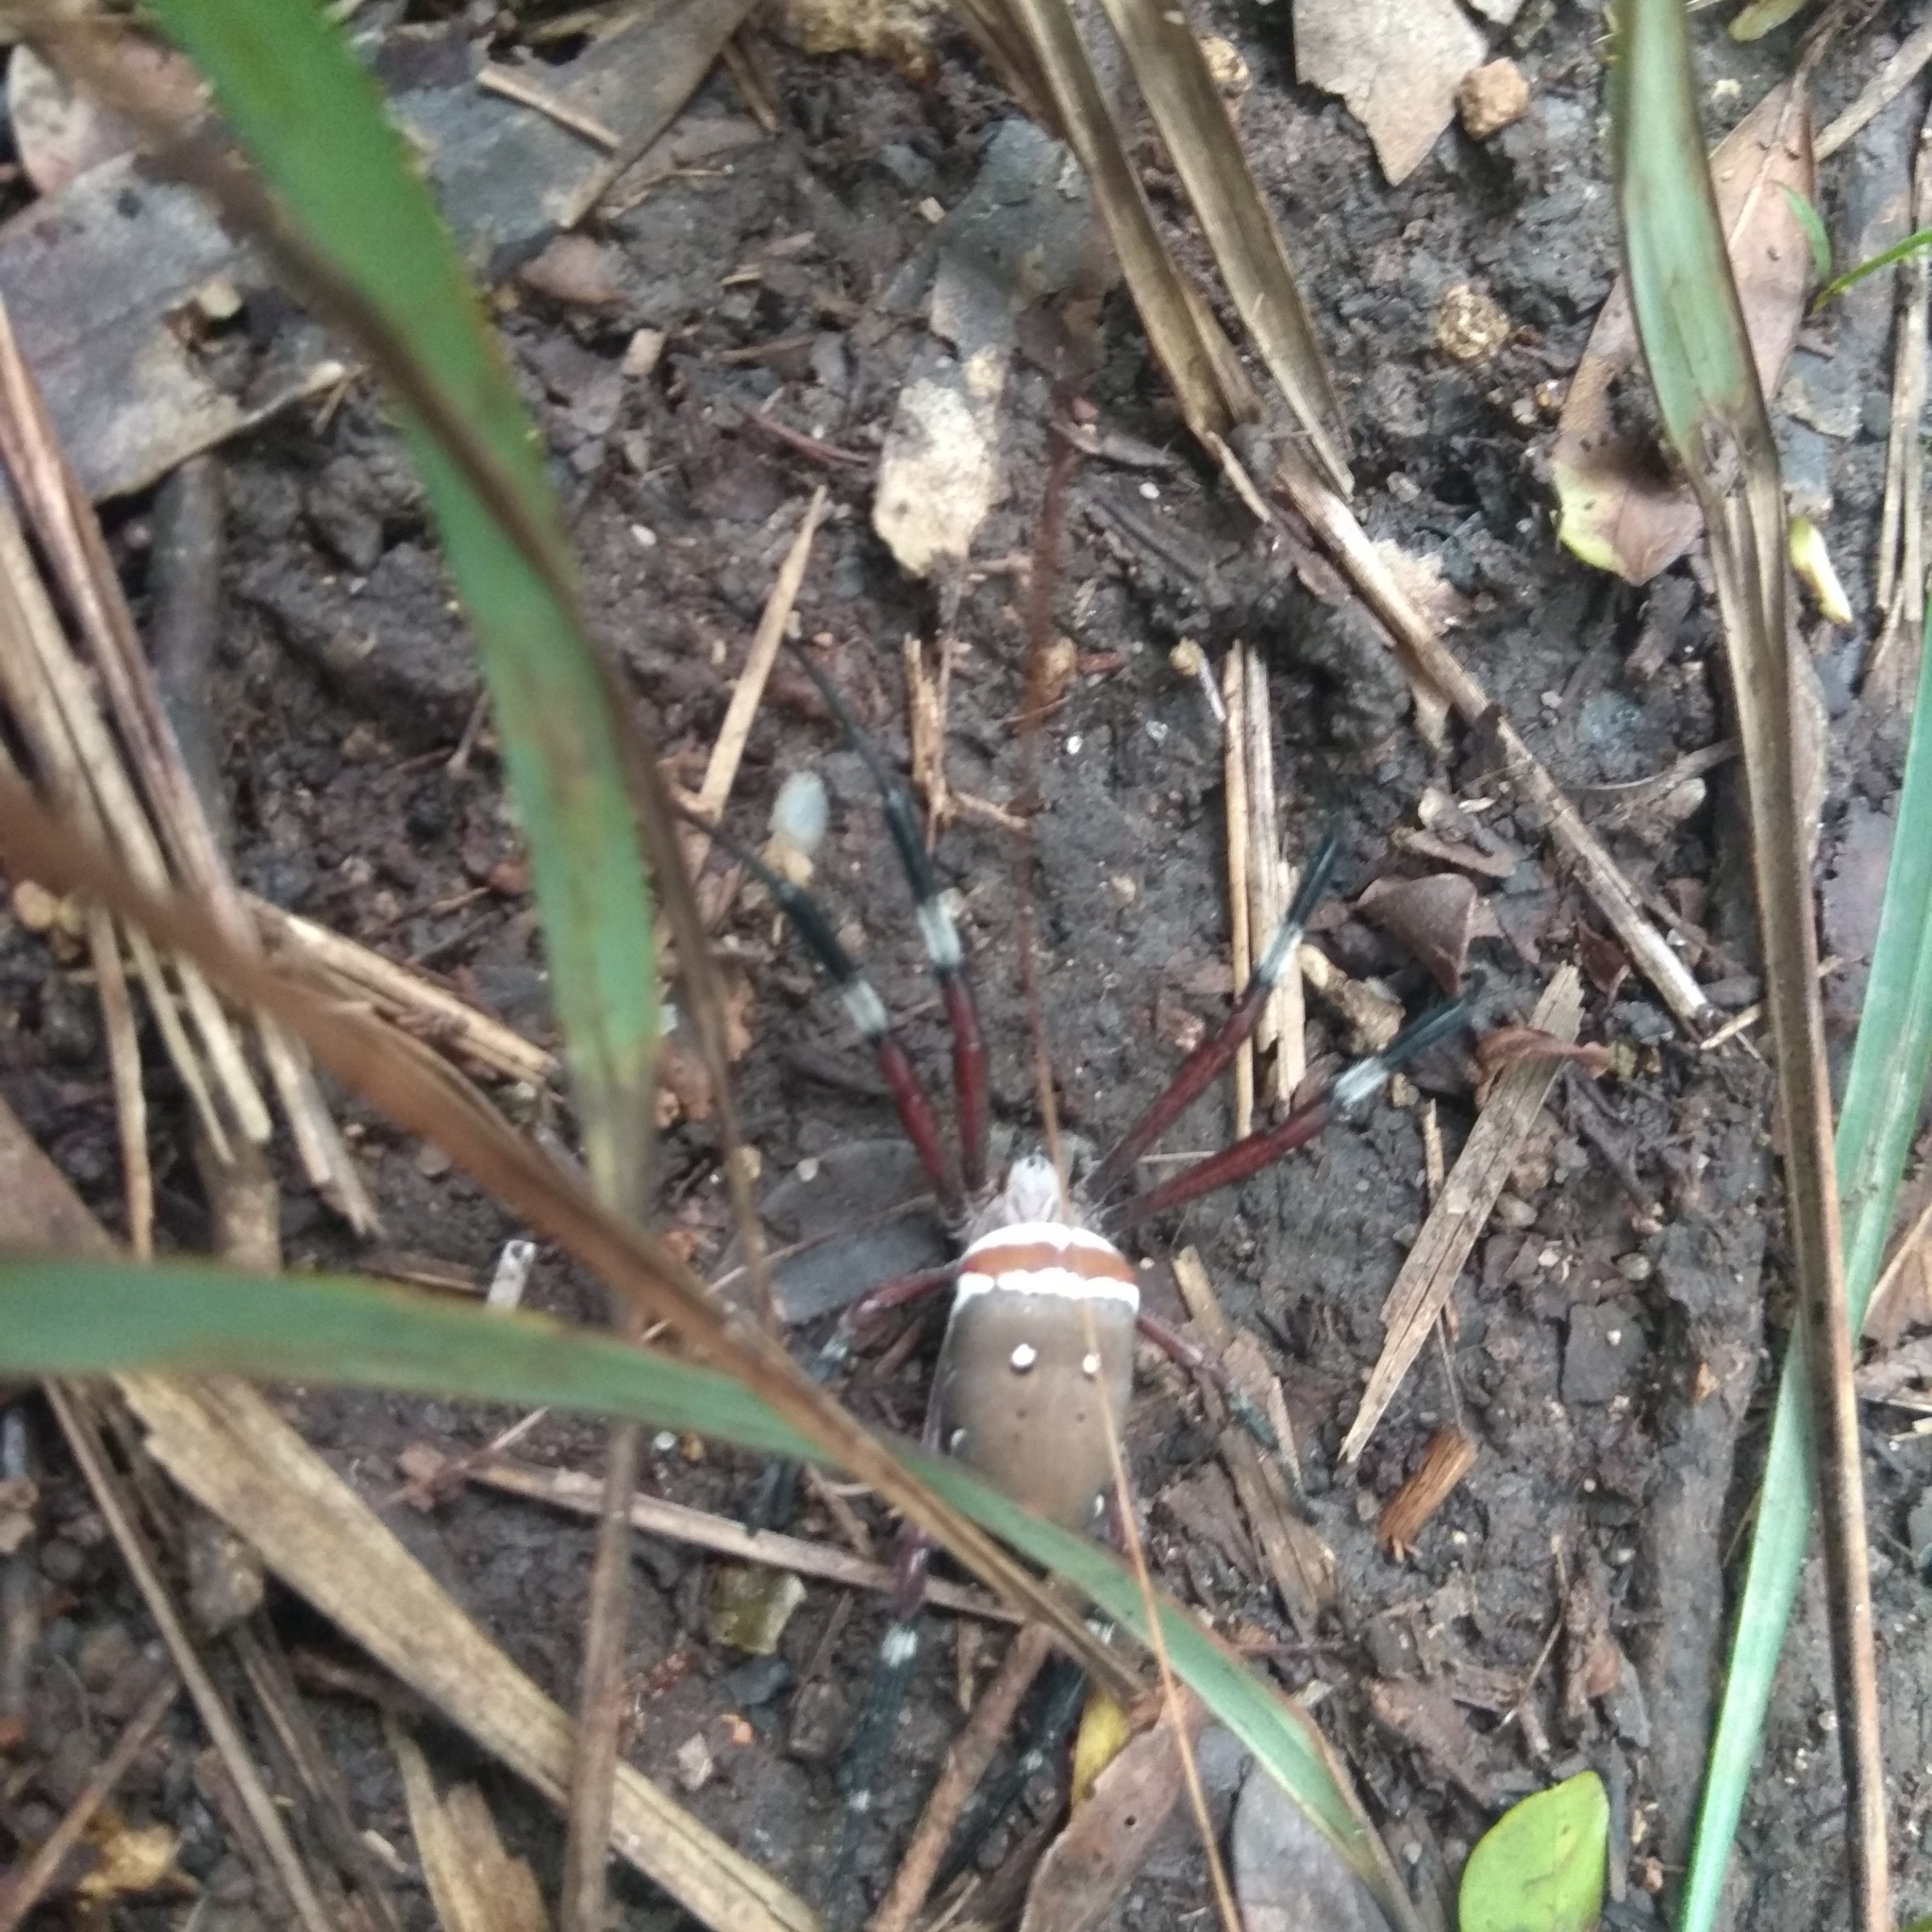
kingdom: Animalia
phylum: Arthropoda
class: Arachnida
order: Araneae
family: Araneidae
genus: Argiope
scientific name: Argiope ocula
